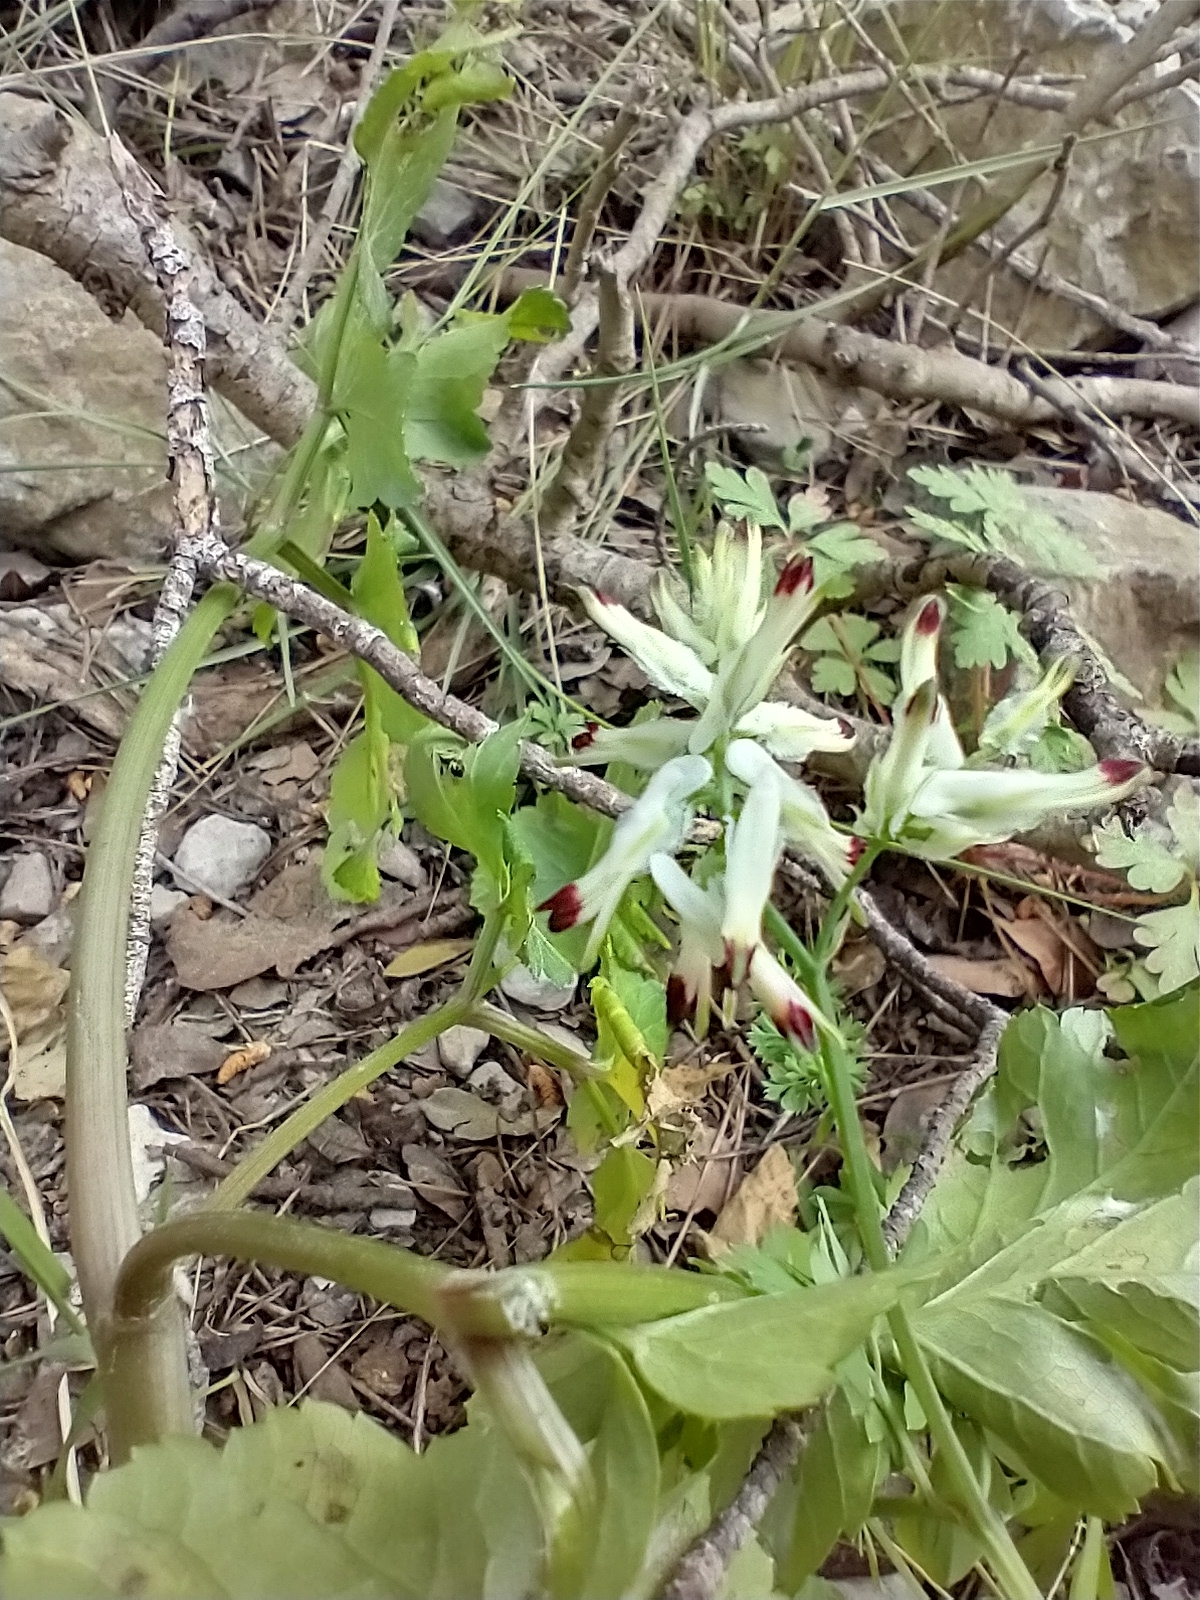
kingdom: Plantae
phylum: Tracheophyta
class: Magnoliopsida
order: Ranunculales
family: Papaveraceae
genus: Fumaria
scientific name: Fumaria capreolata
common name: White ramping-fumitory
